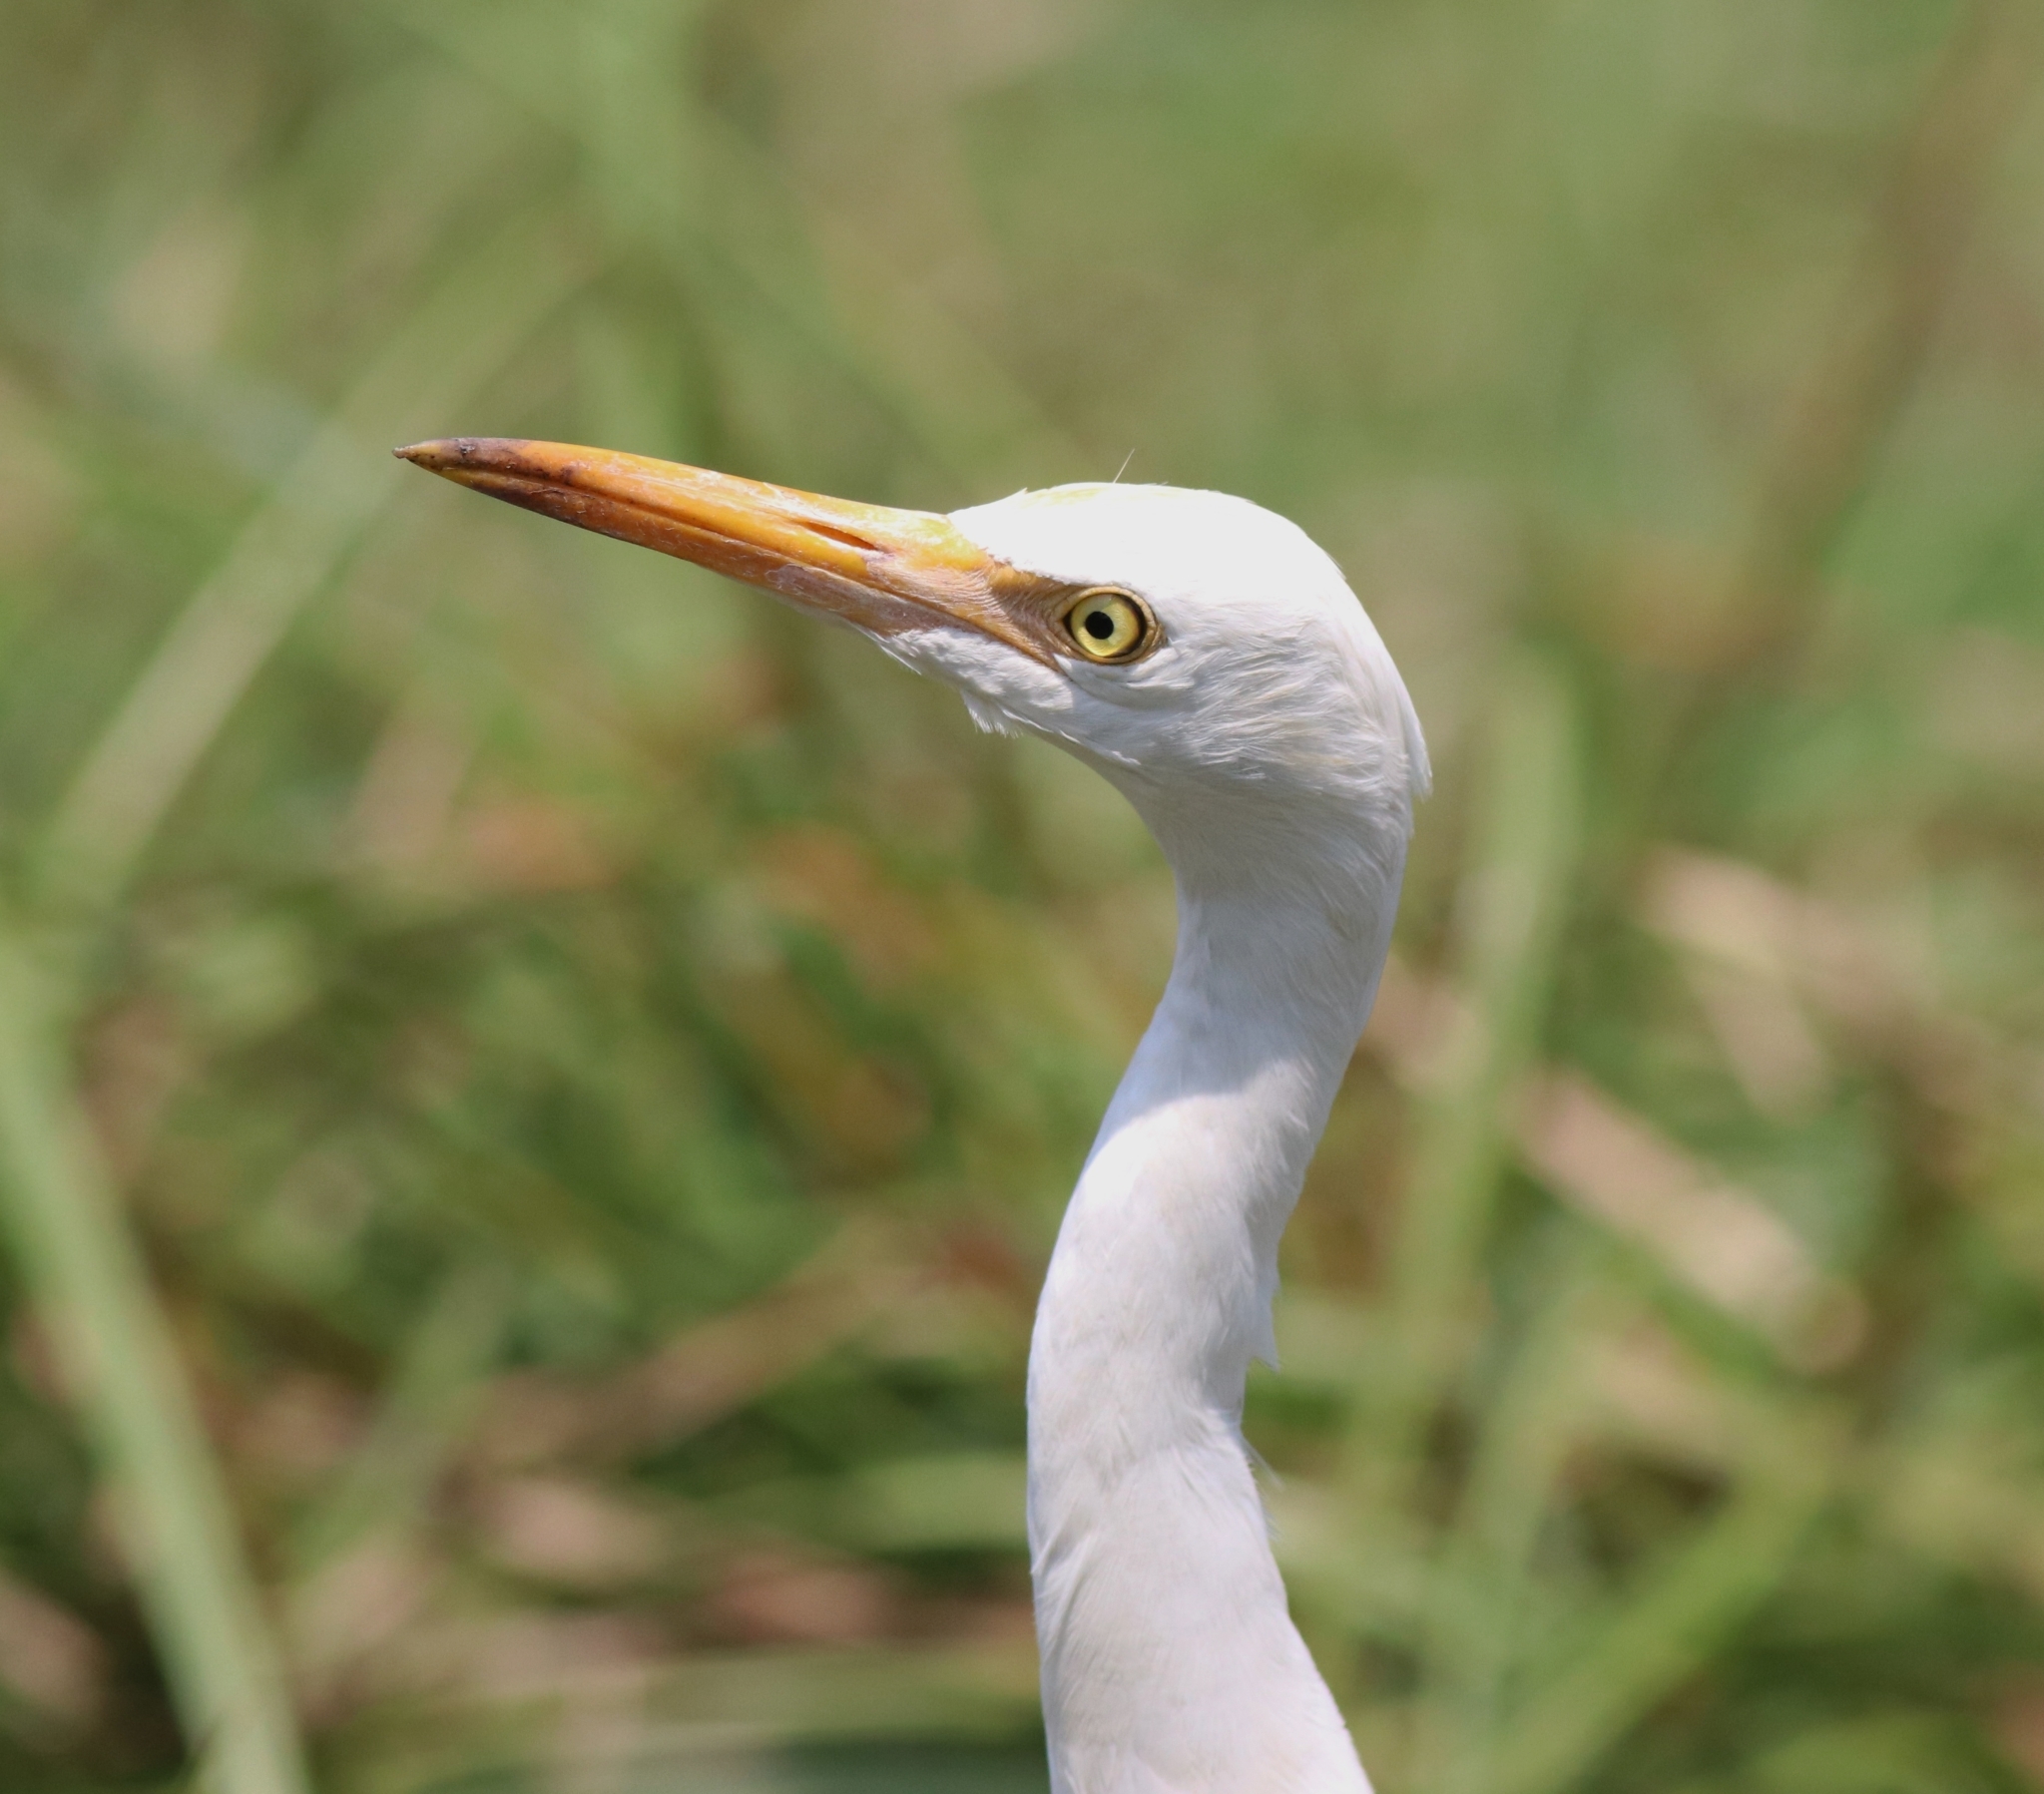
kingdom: Animalia
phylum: Chordata
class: Aves
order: Pelecaniformes
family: Ardeidae
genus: Bubulcus
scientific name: Bubulcus coromandus
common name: Eastern cattle egret
